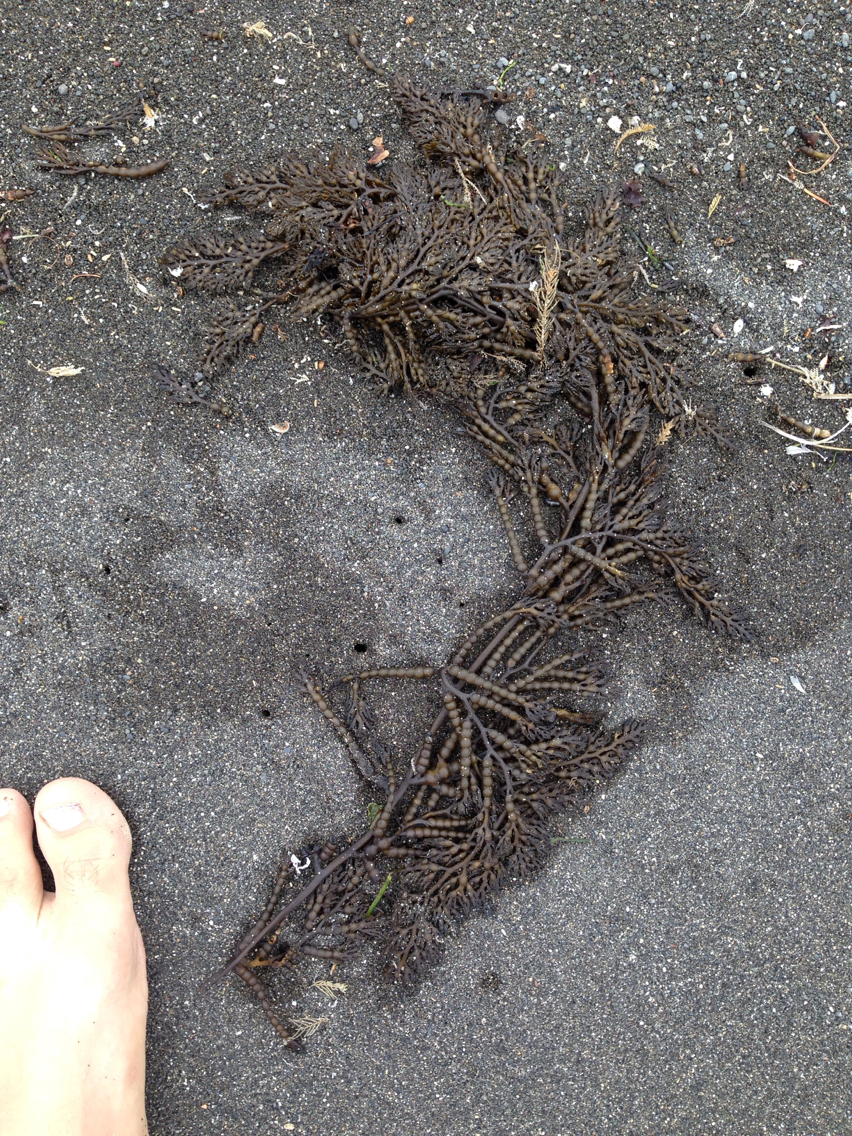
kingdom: Chromista
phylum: Ochrophyta
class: Phaeophyceae
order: Fucales
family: Sargassaceae
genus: Stephanocystis
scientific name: Stephanocystis
